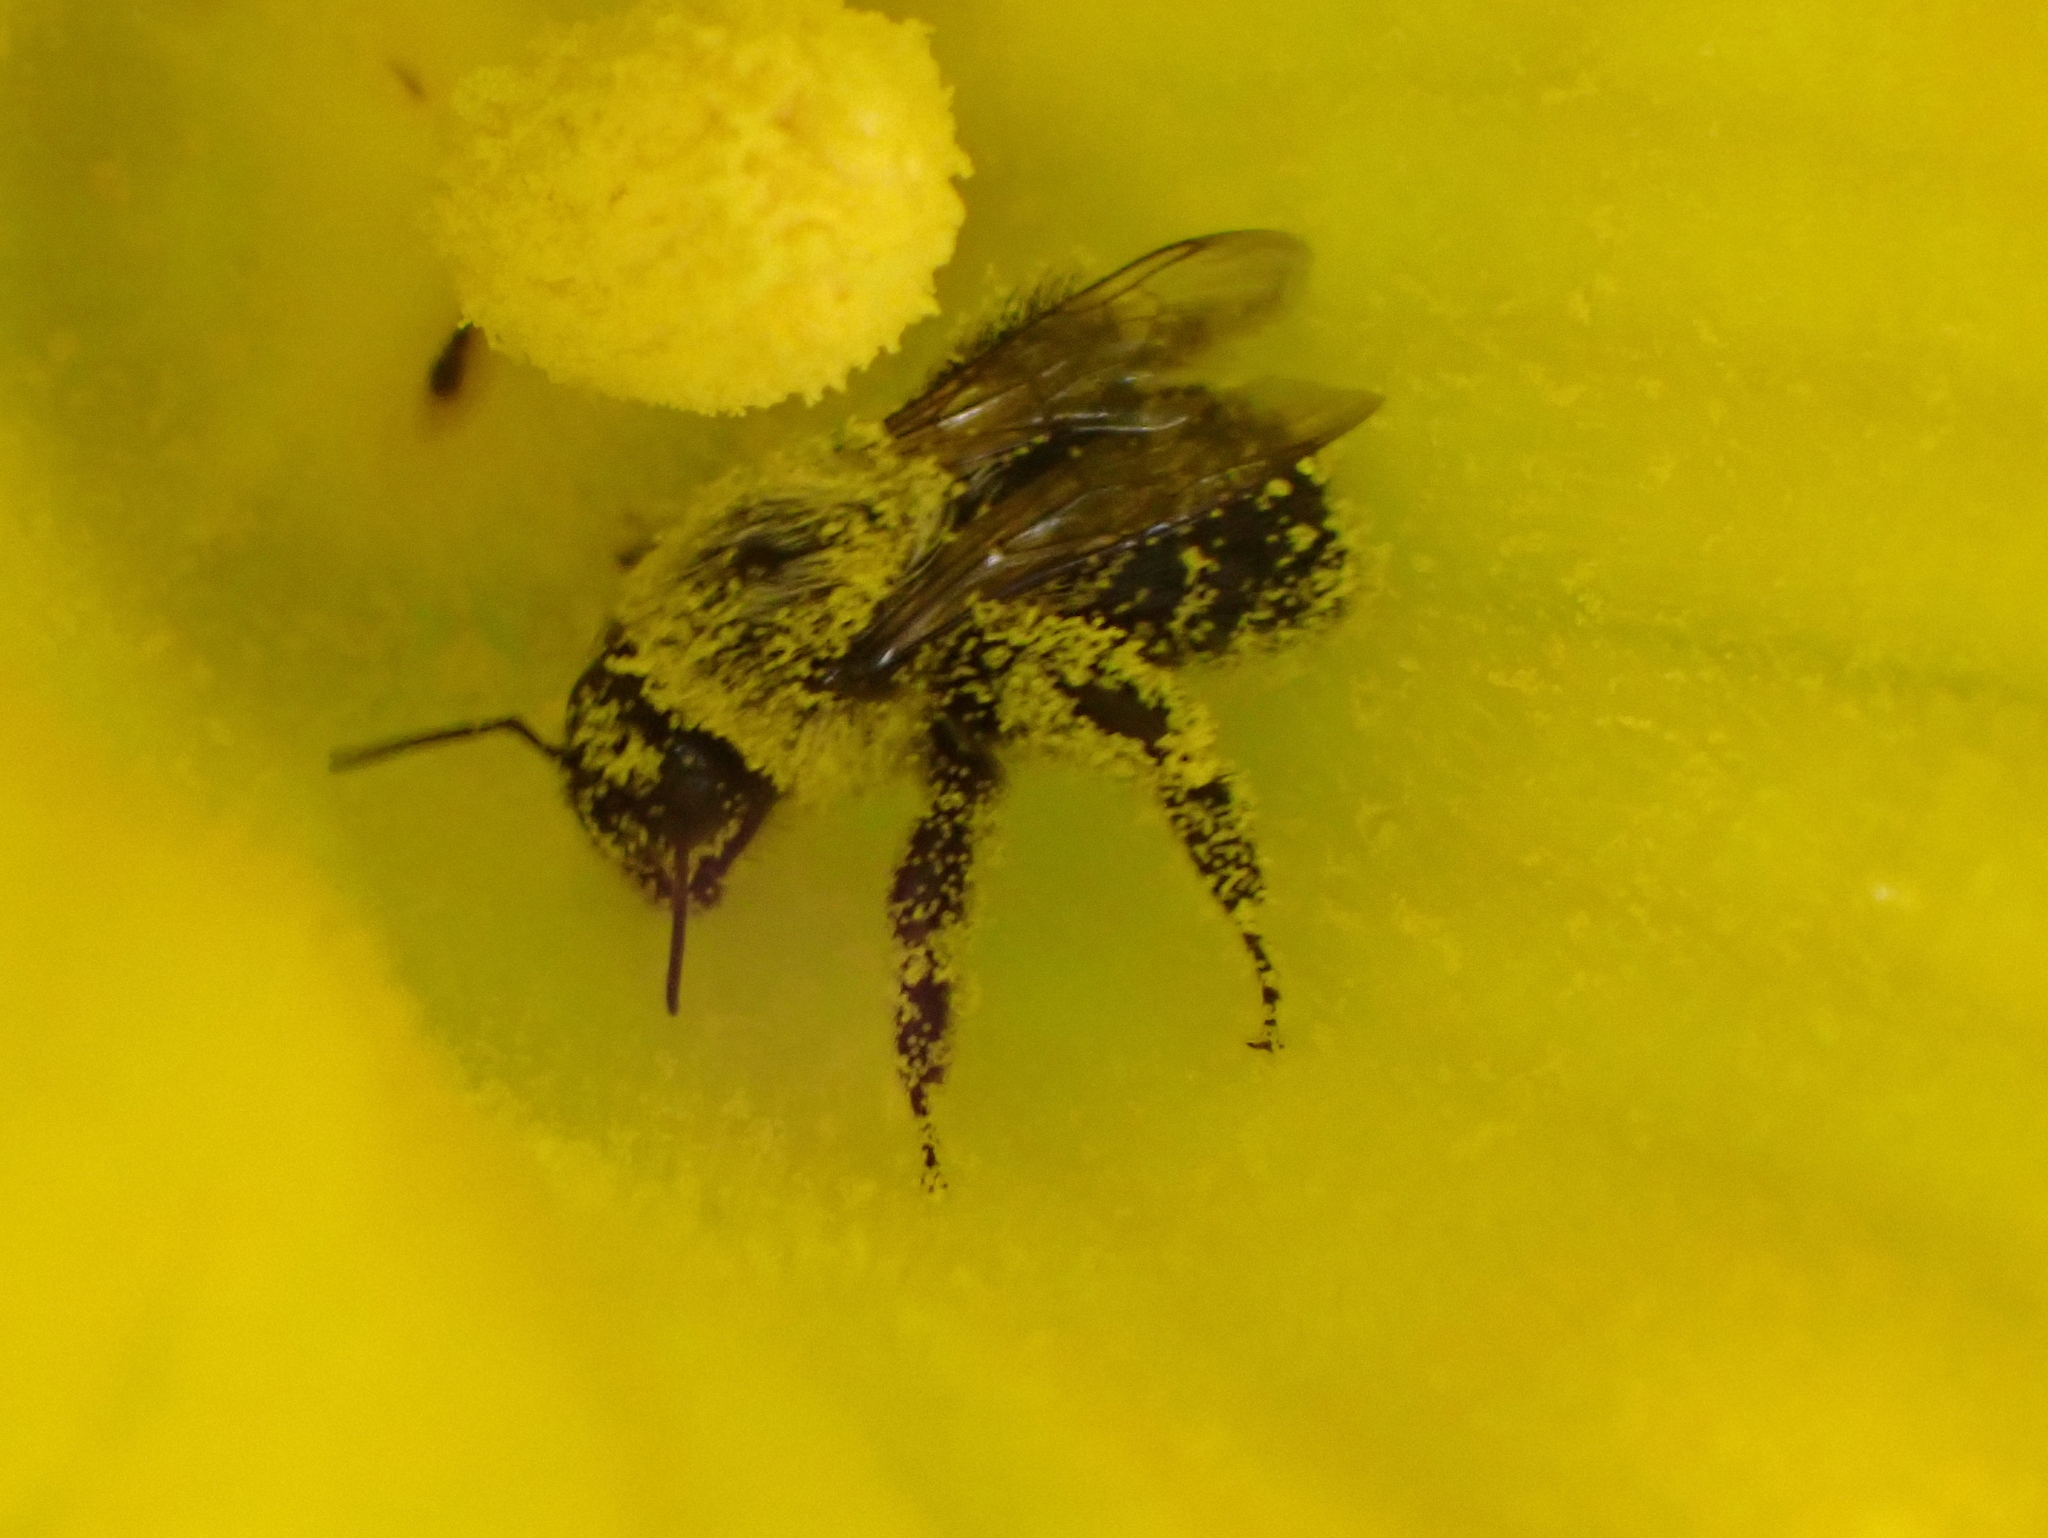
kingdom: Animalia
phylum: Arthropoda
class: Insecta
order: Hymenoptera
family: Apidae
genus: Bombus
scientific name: Bombus impatiens
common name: Common eastern bumble bee
